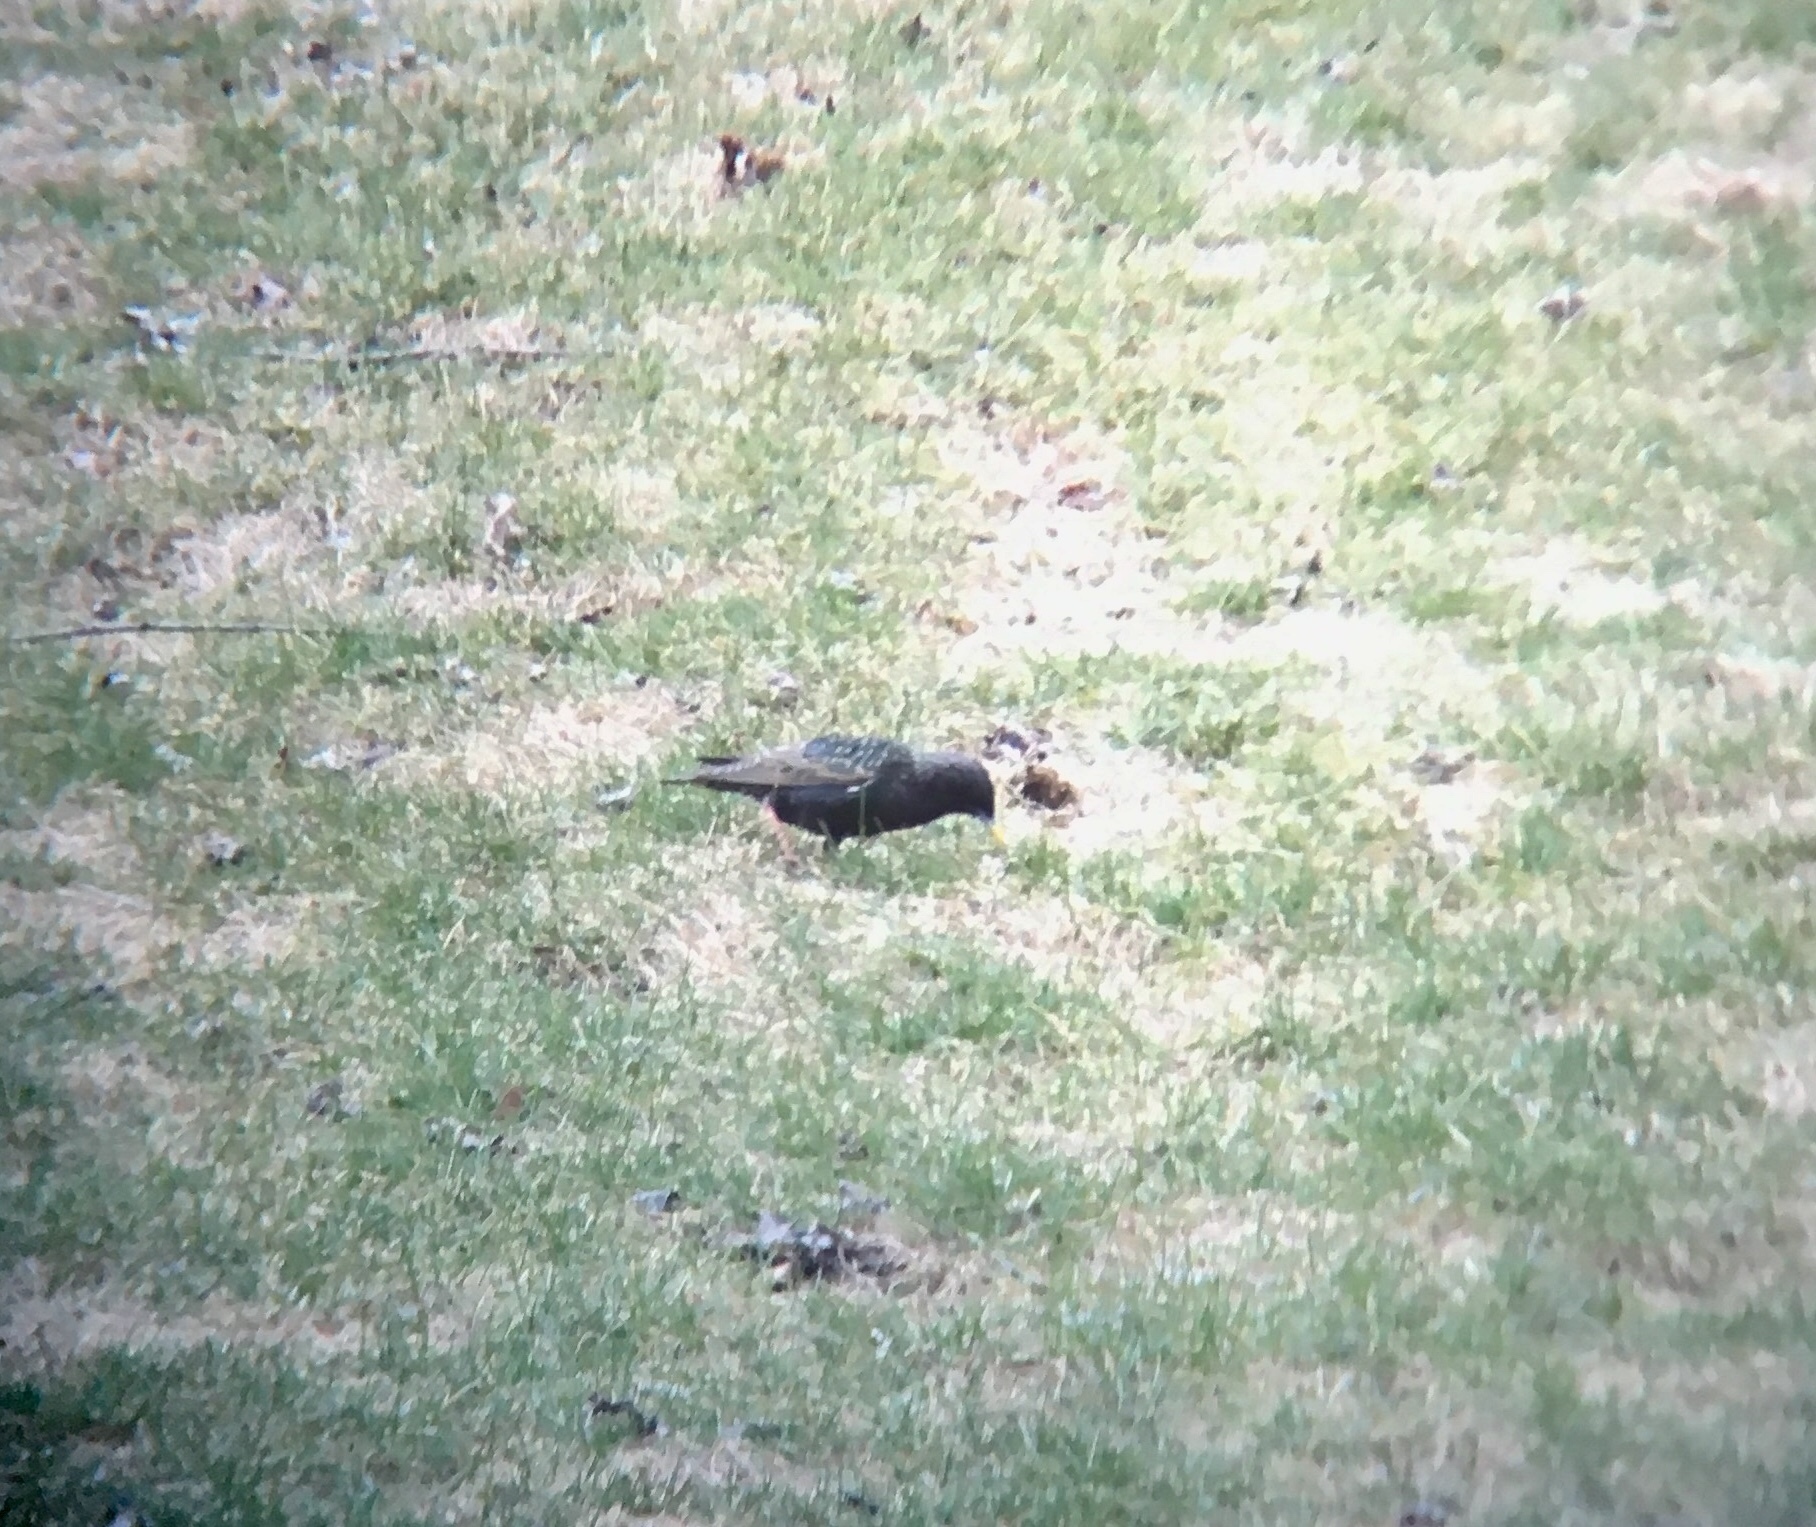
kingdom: Animalia
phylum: Chordata
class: Aves
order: Passeriformes
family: Sturnidae
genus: Sturnus
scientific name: Sturnus vulgaris
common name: Common starling
